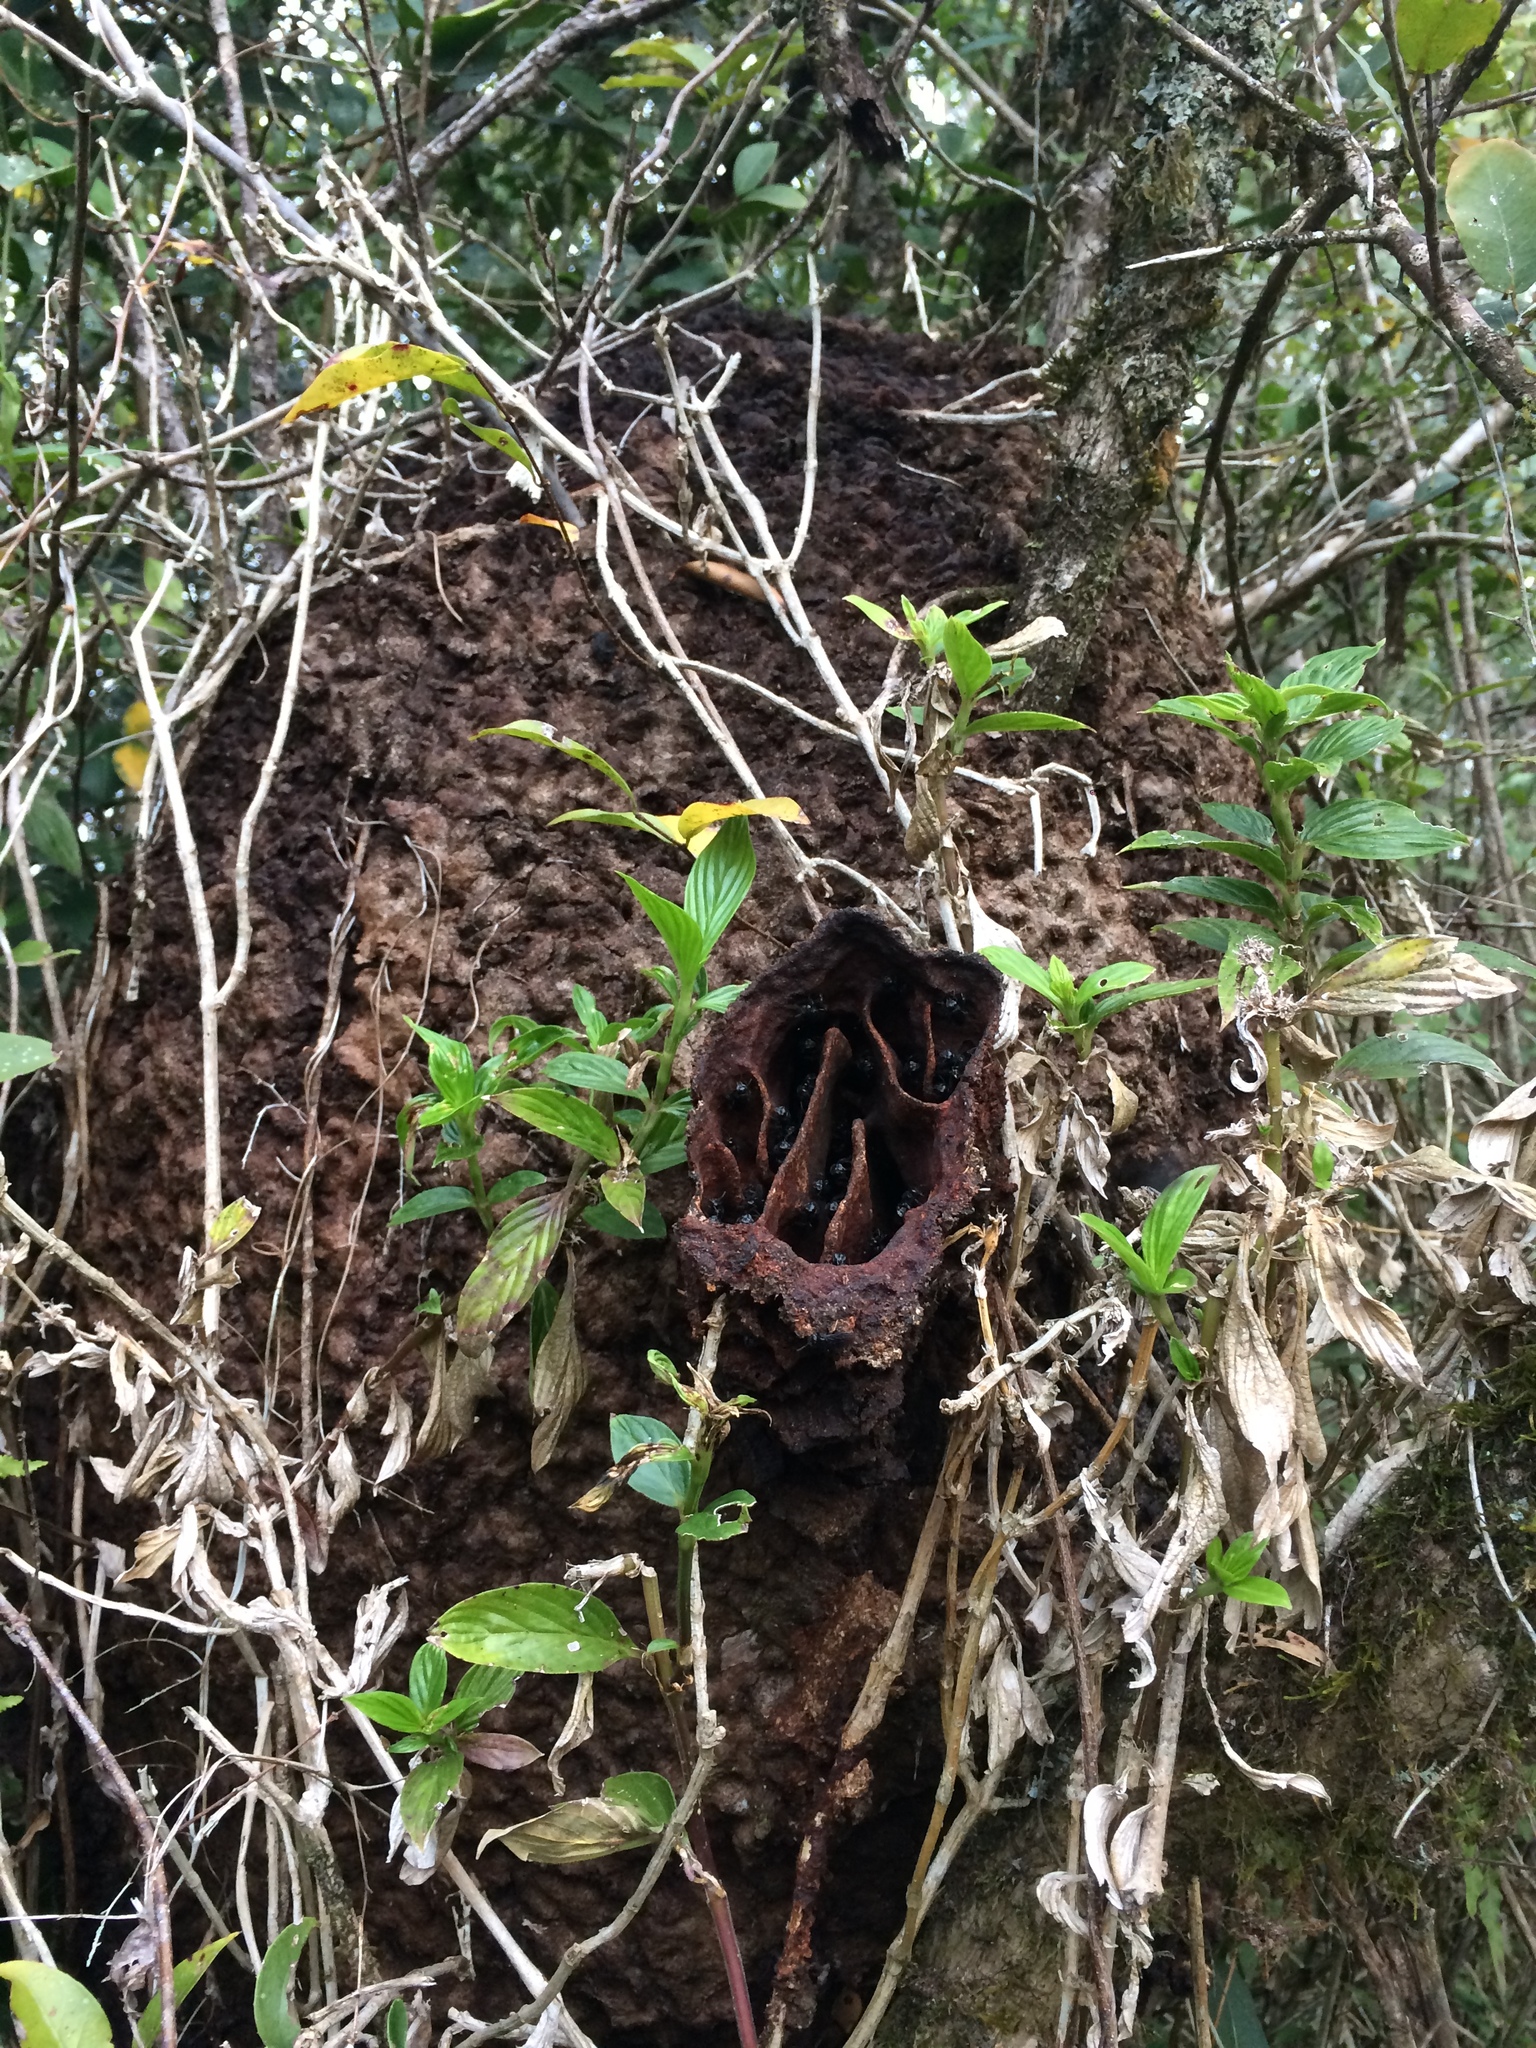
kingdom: Animalia
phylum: Arthropoda
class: Insecta
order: Hymenoptera
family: Apidae
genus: Trigona
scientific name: Trigona spinipes
